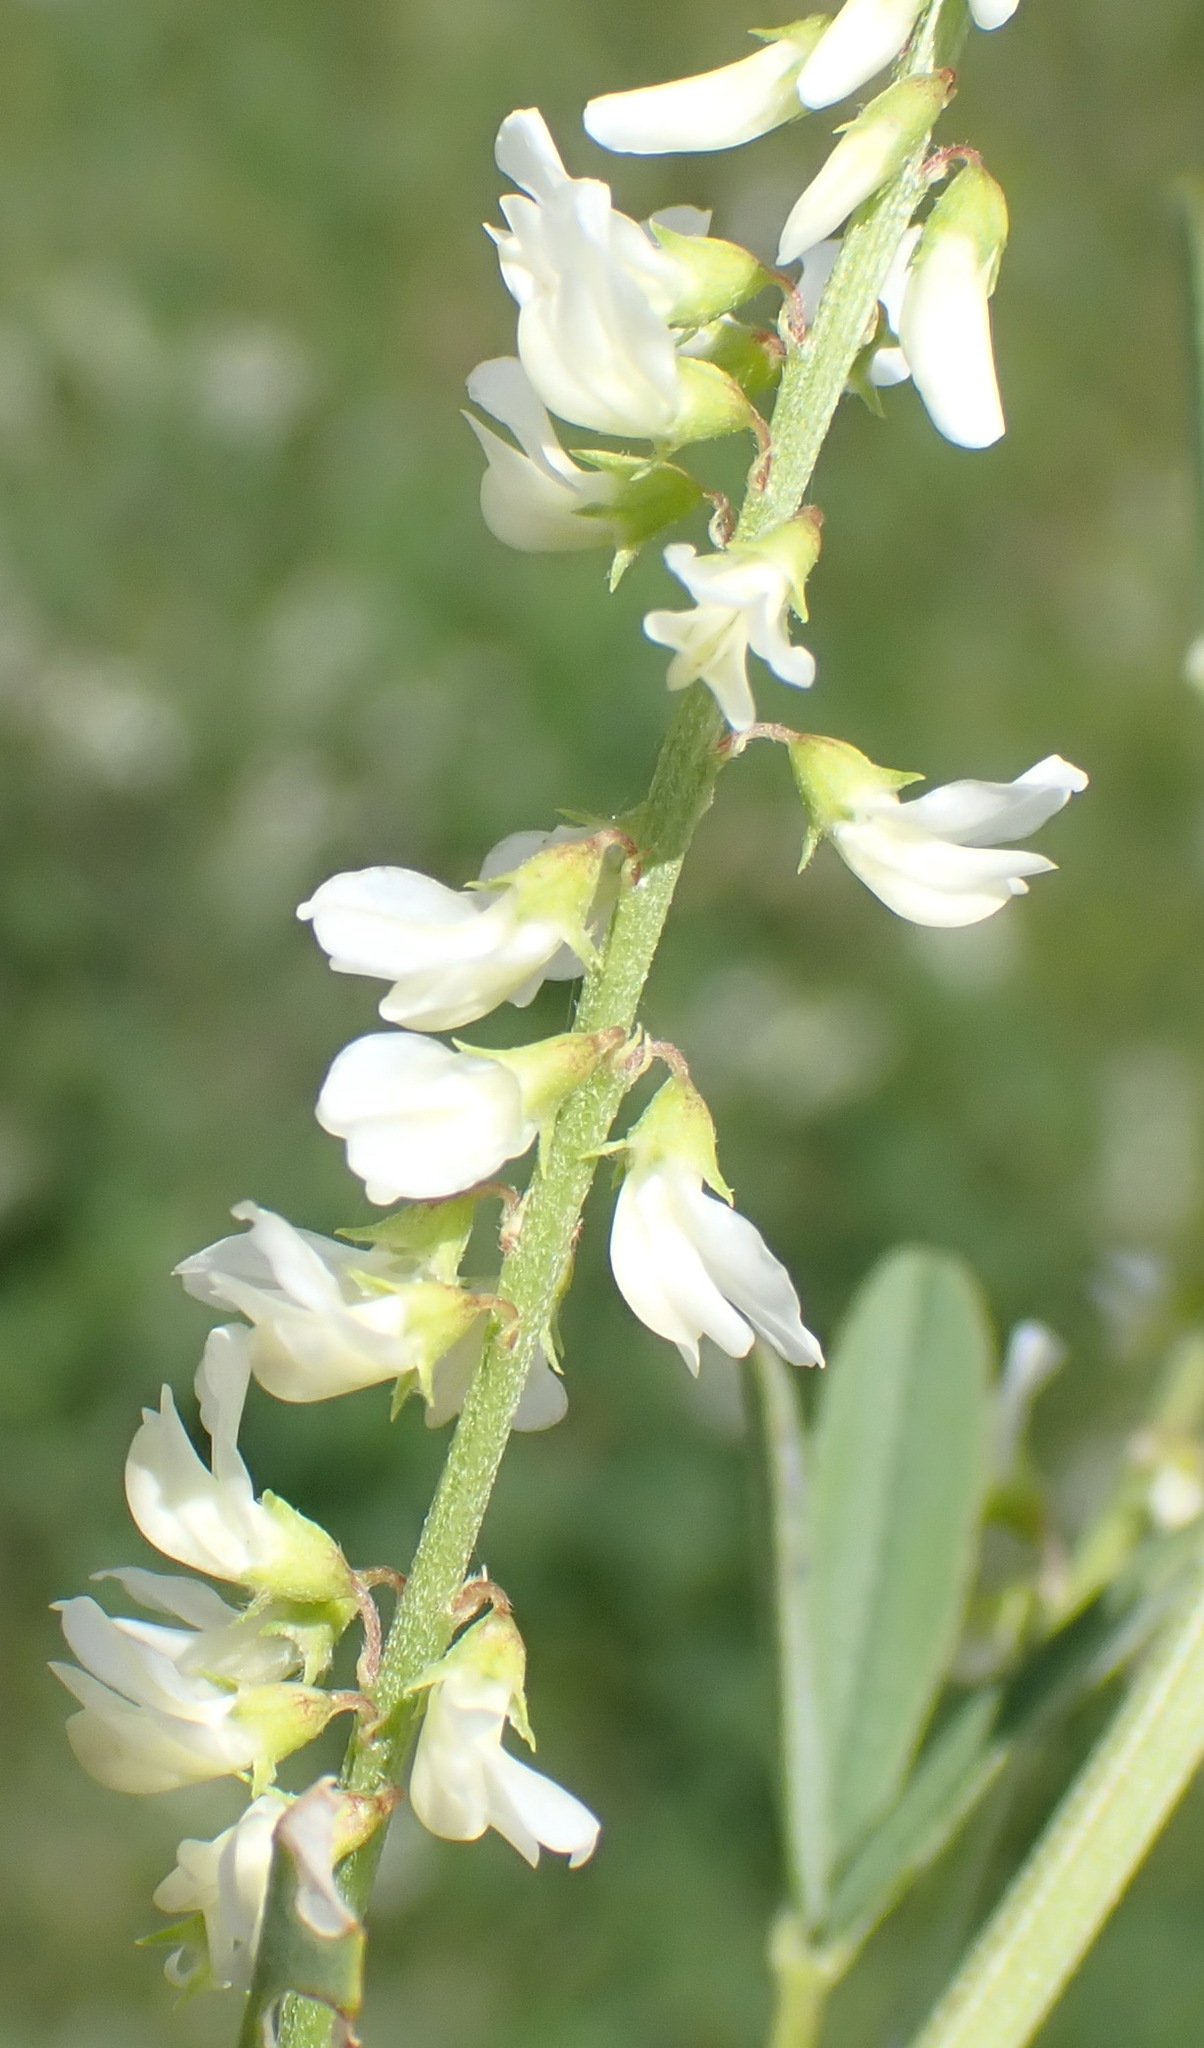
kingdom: Plantae
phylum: Tracheophyta
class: Magnoliopsida
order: Fabales
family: Fabaceae
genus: Melilotus
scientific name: Melilotus albus
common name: White melilot
